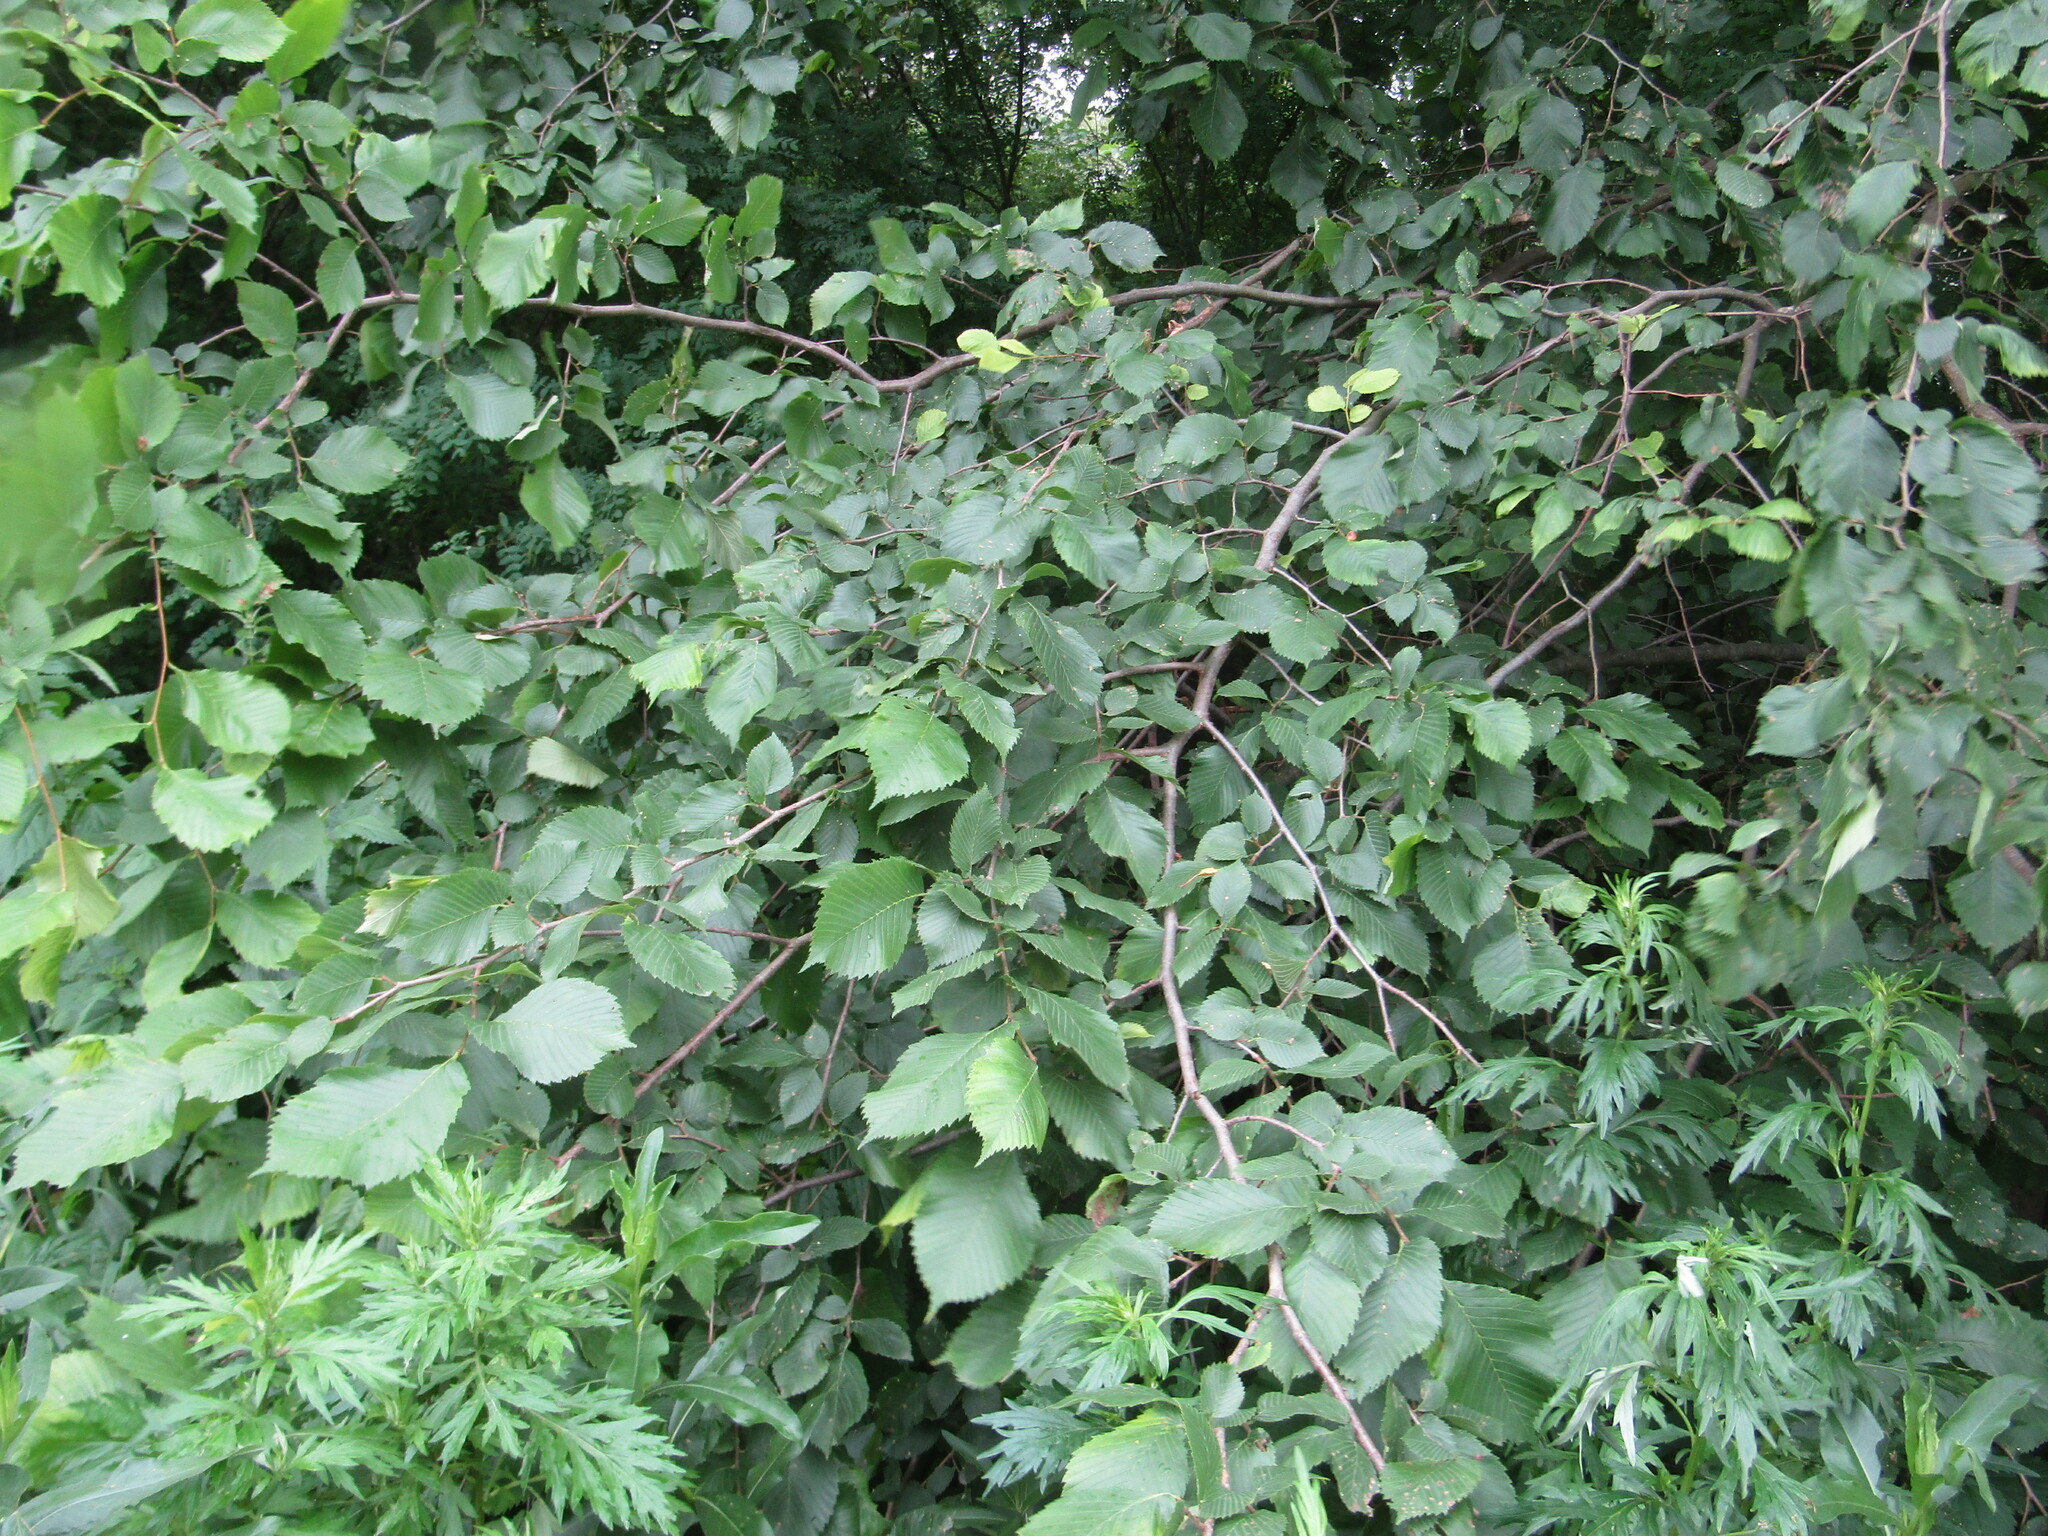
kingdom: Plantae
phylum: Tracheophyta
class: Magnoliopsida
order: Rosales
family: Ulmaceae
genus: Ulmus
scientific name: Ulmus laevis
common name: European white-elm
